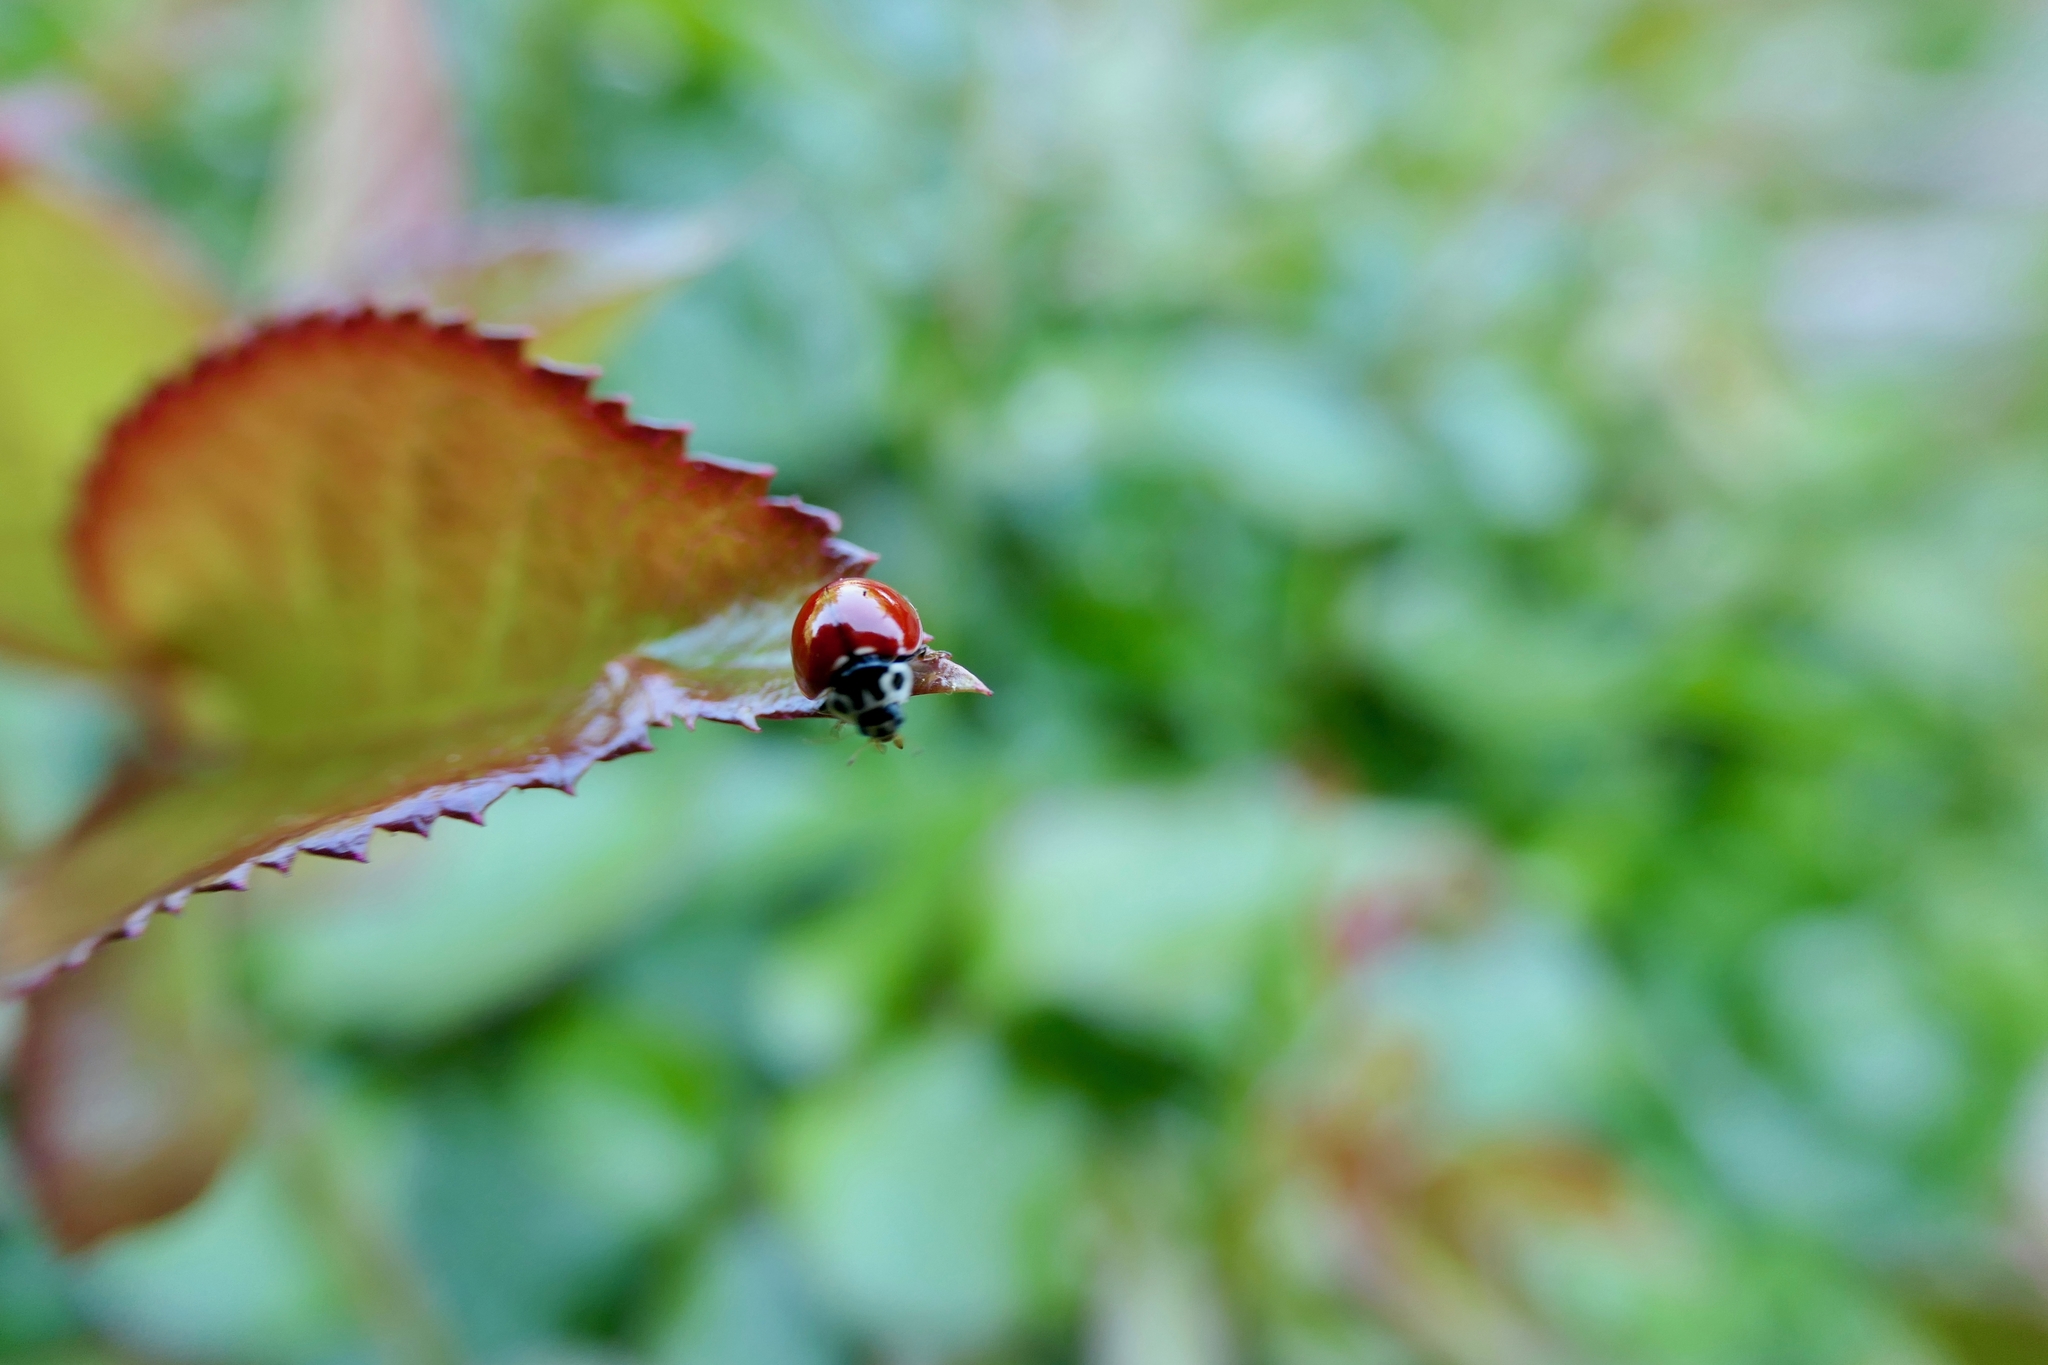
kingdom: Animalia
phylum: Arthropoda
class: Insecta
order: Coleoptera
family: Coccinellidae
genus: Cycloneda
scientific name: Cycloneda polita
